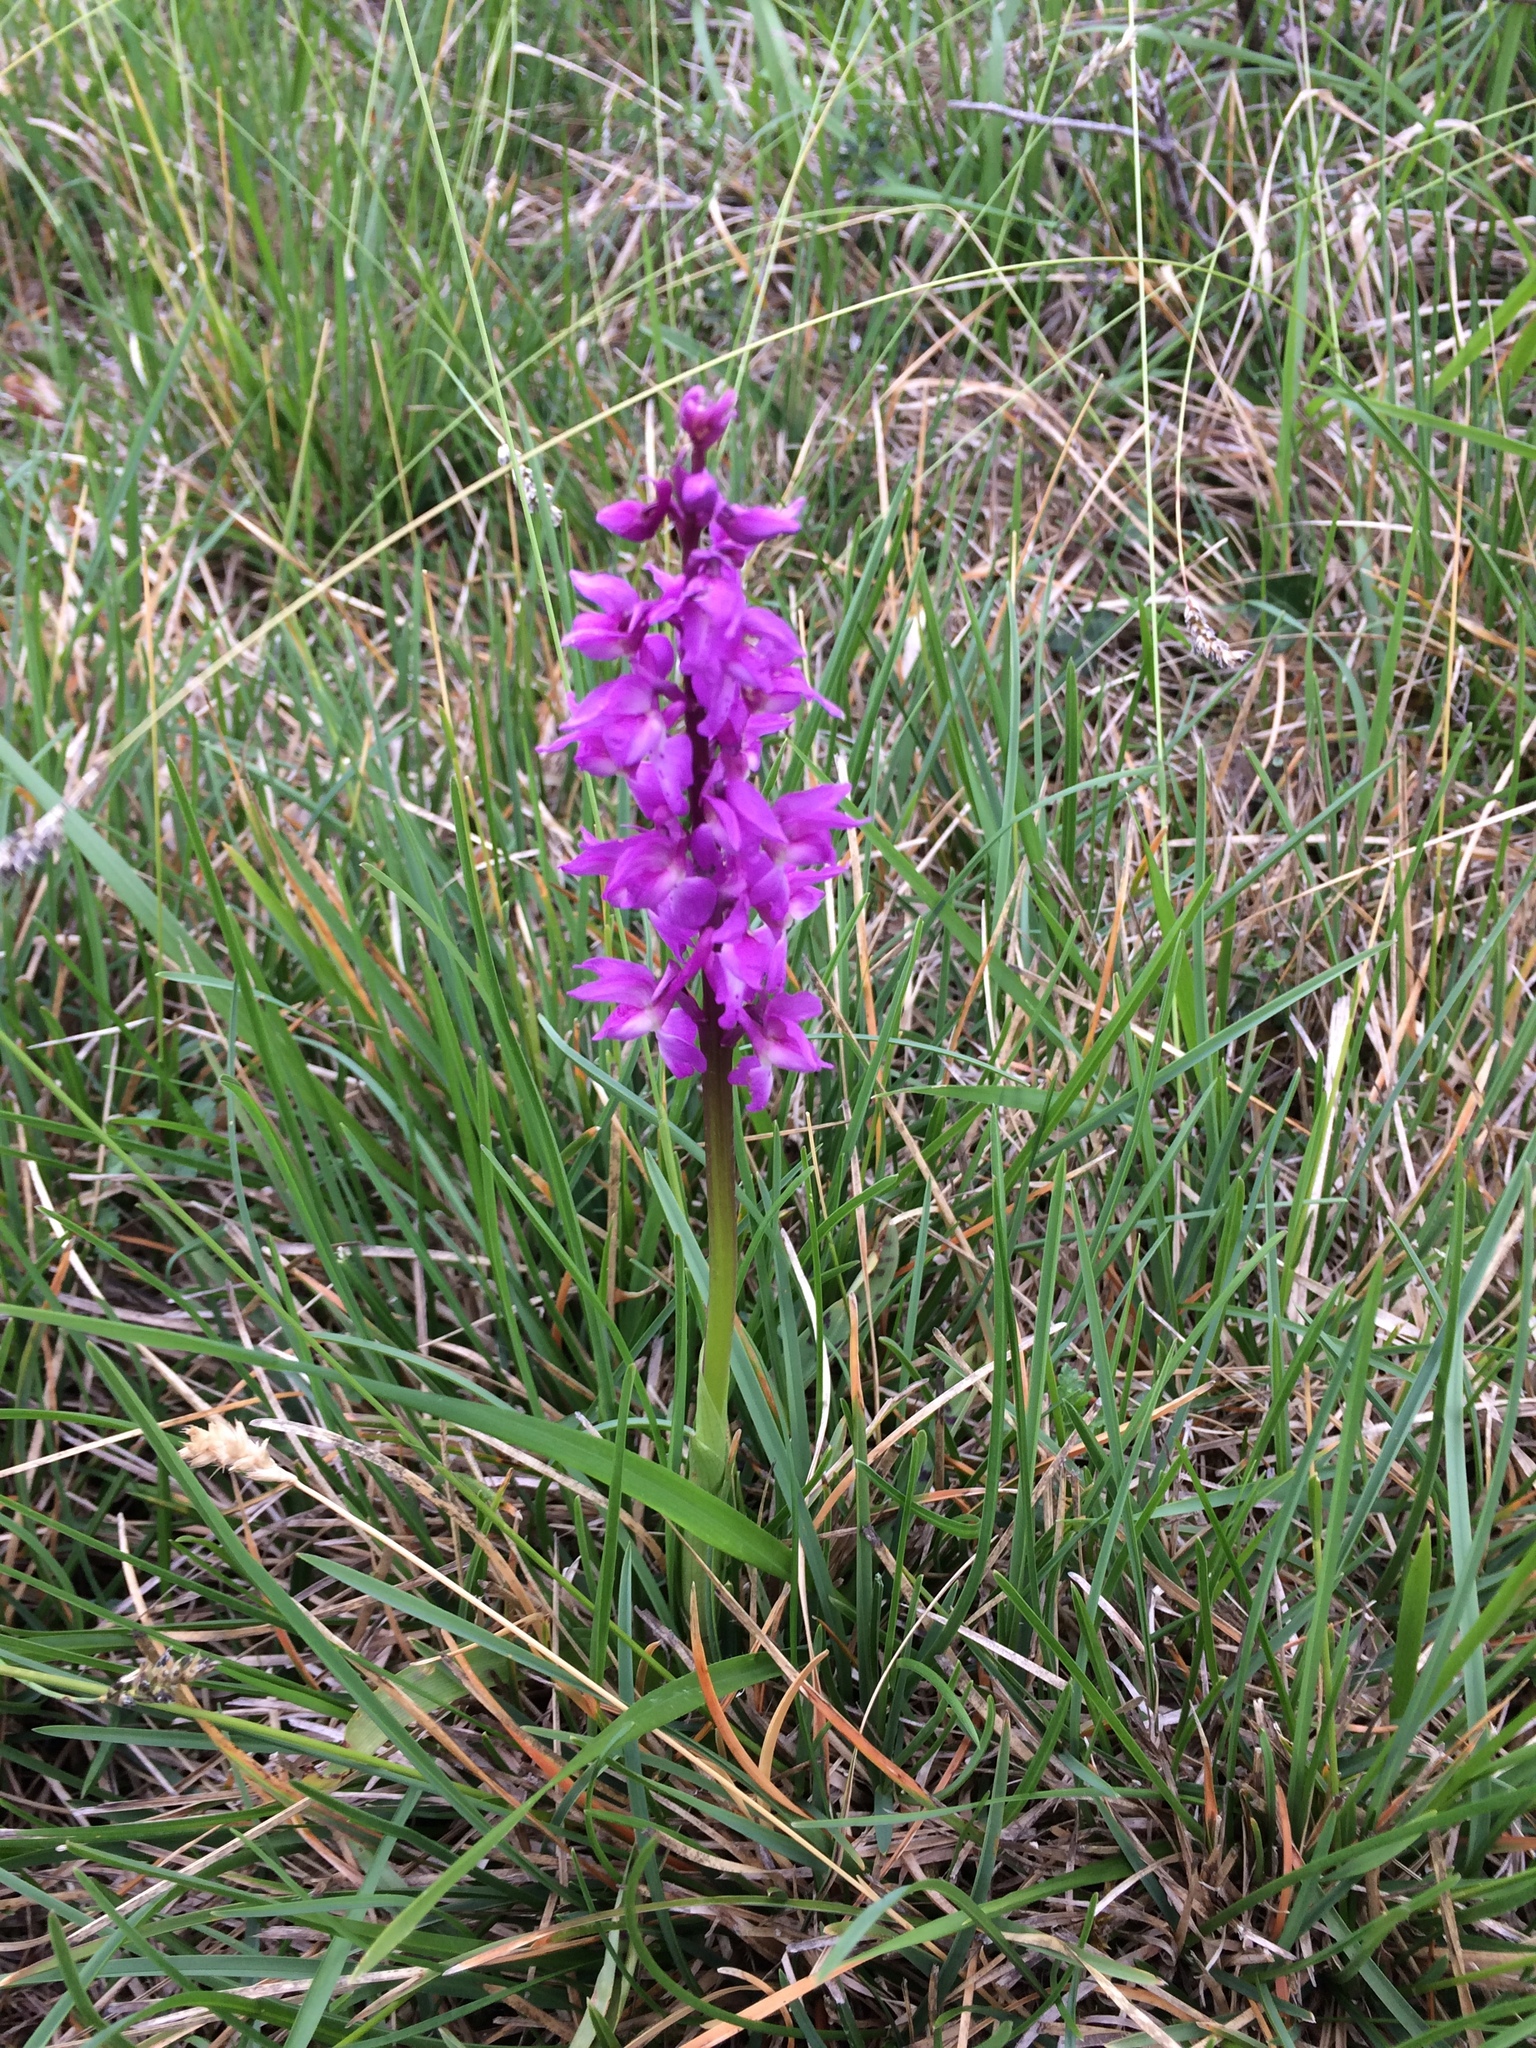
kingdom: Plantae
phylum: Tracheophyta
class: Liliopsida
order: Asparagales
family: Orchidaceae
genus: Orchis
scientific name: Orchis mascula
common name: Early-purple orchid
